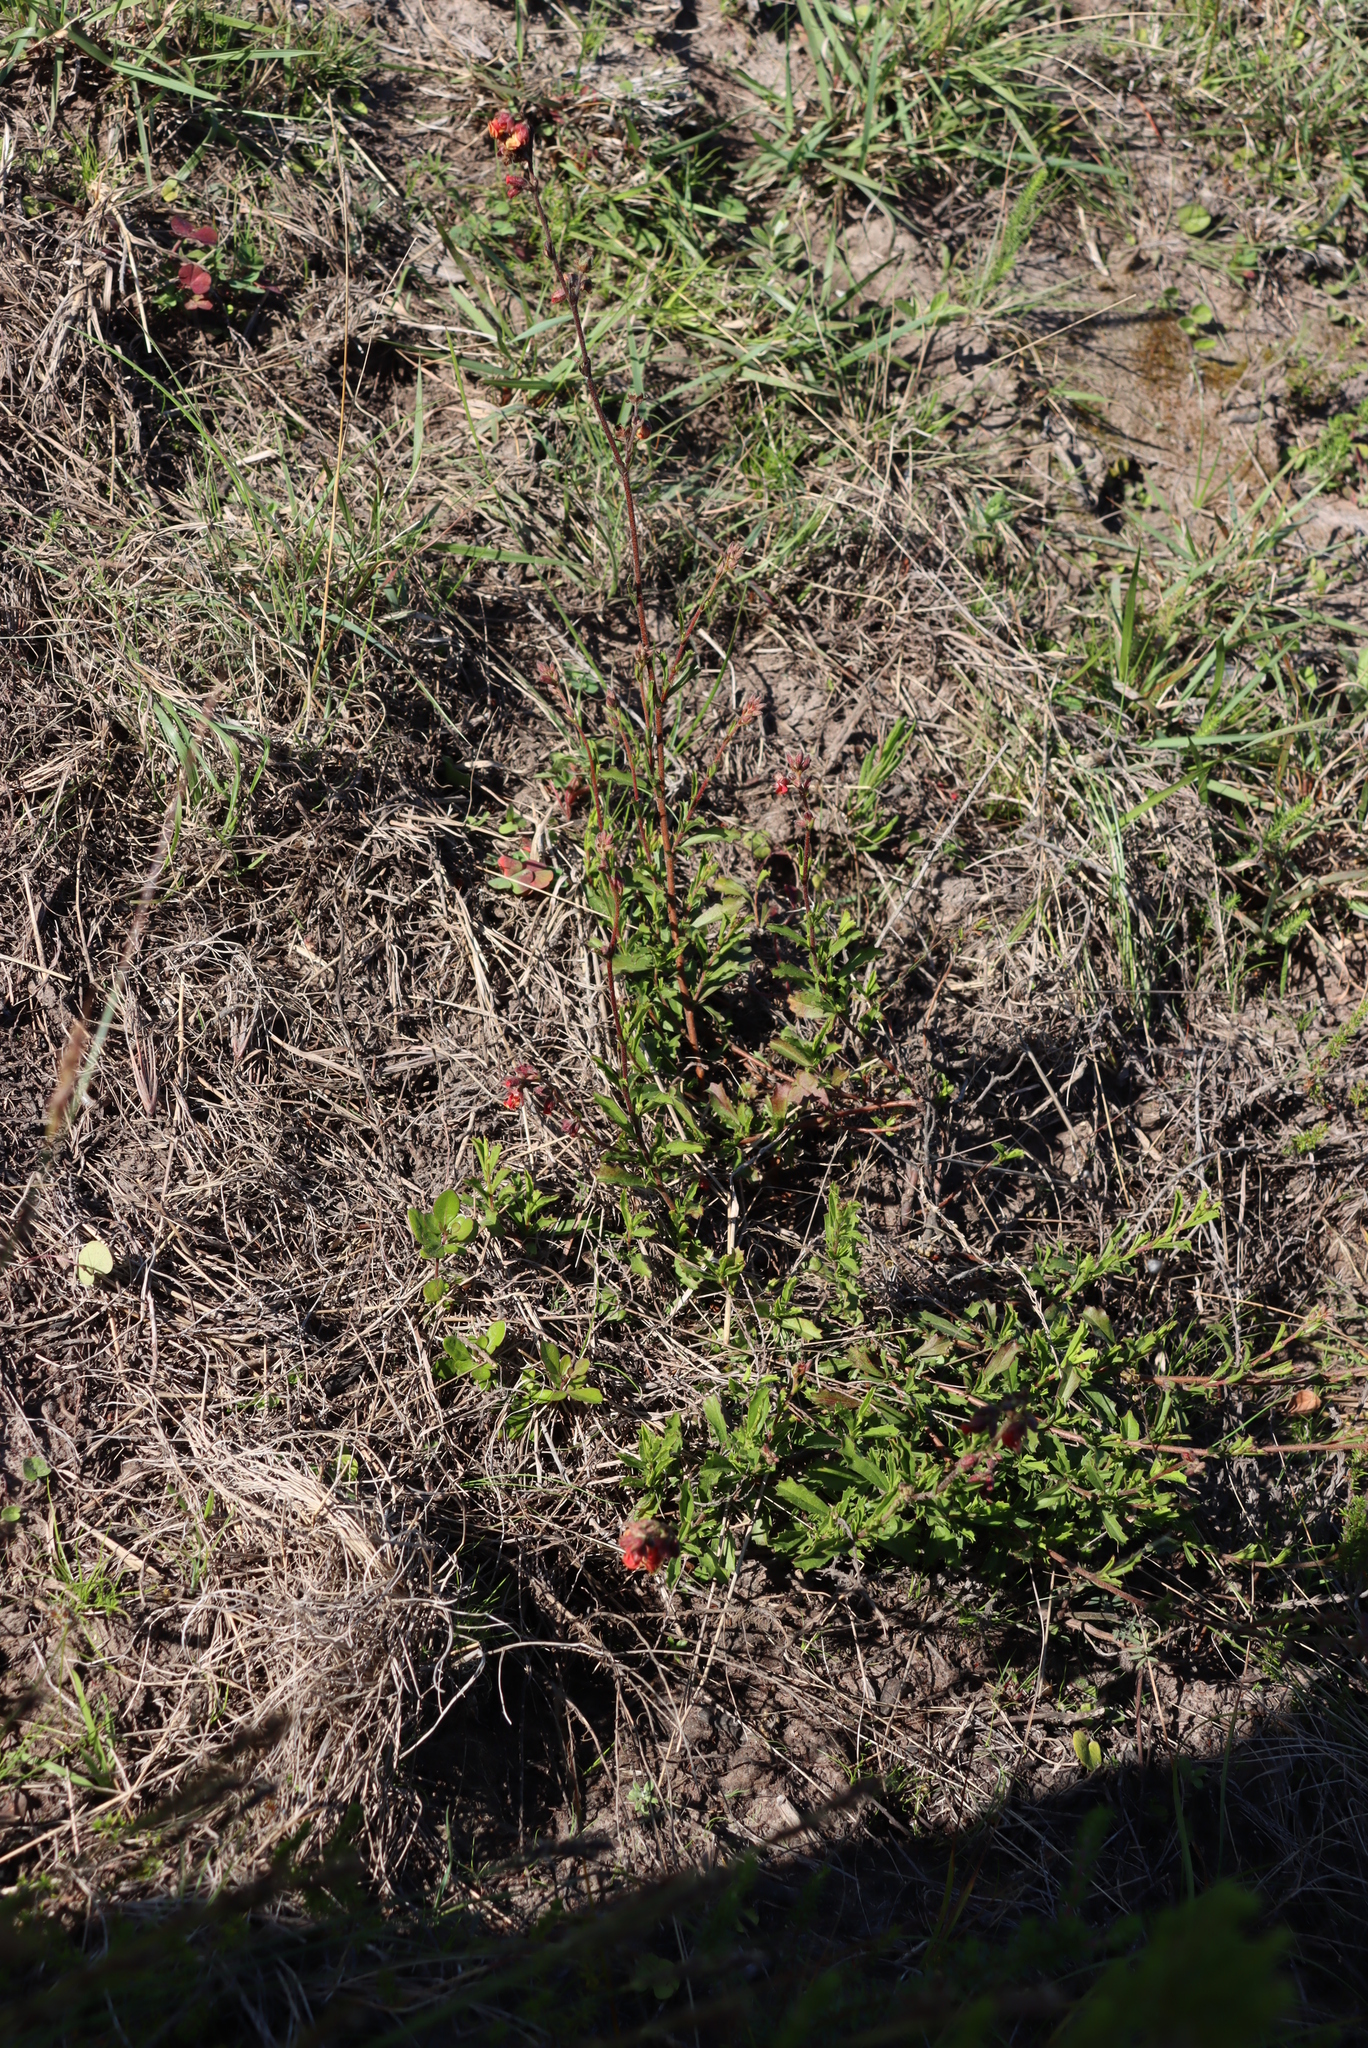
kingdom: Plantae
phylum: Tracheophyta
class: Magnoliopsida
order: Malvales
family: Malvaceae
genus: Hermannia
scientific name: Hermannia flammea
